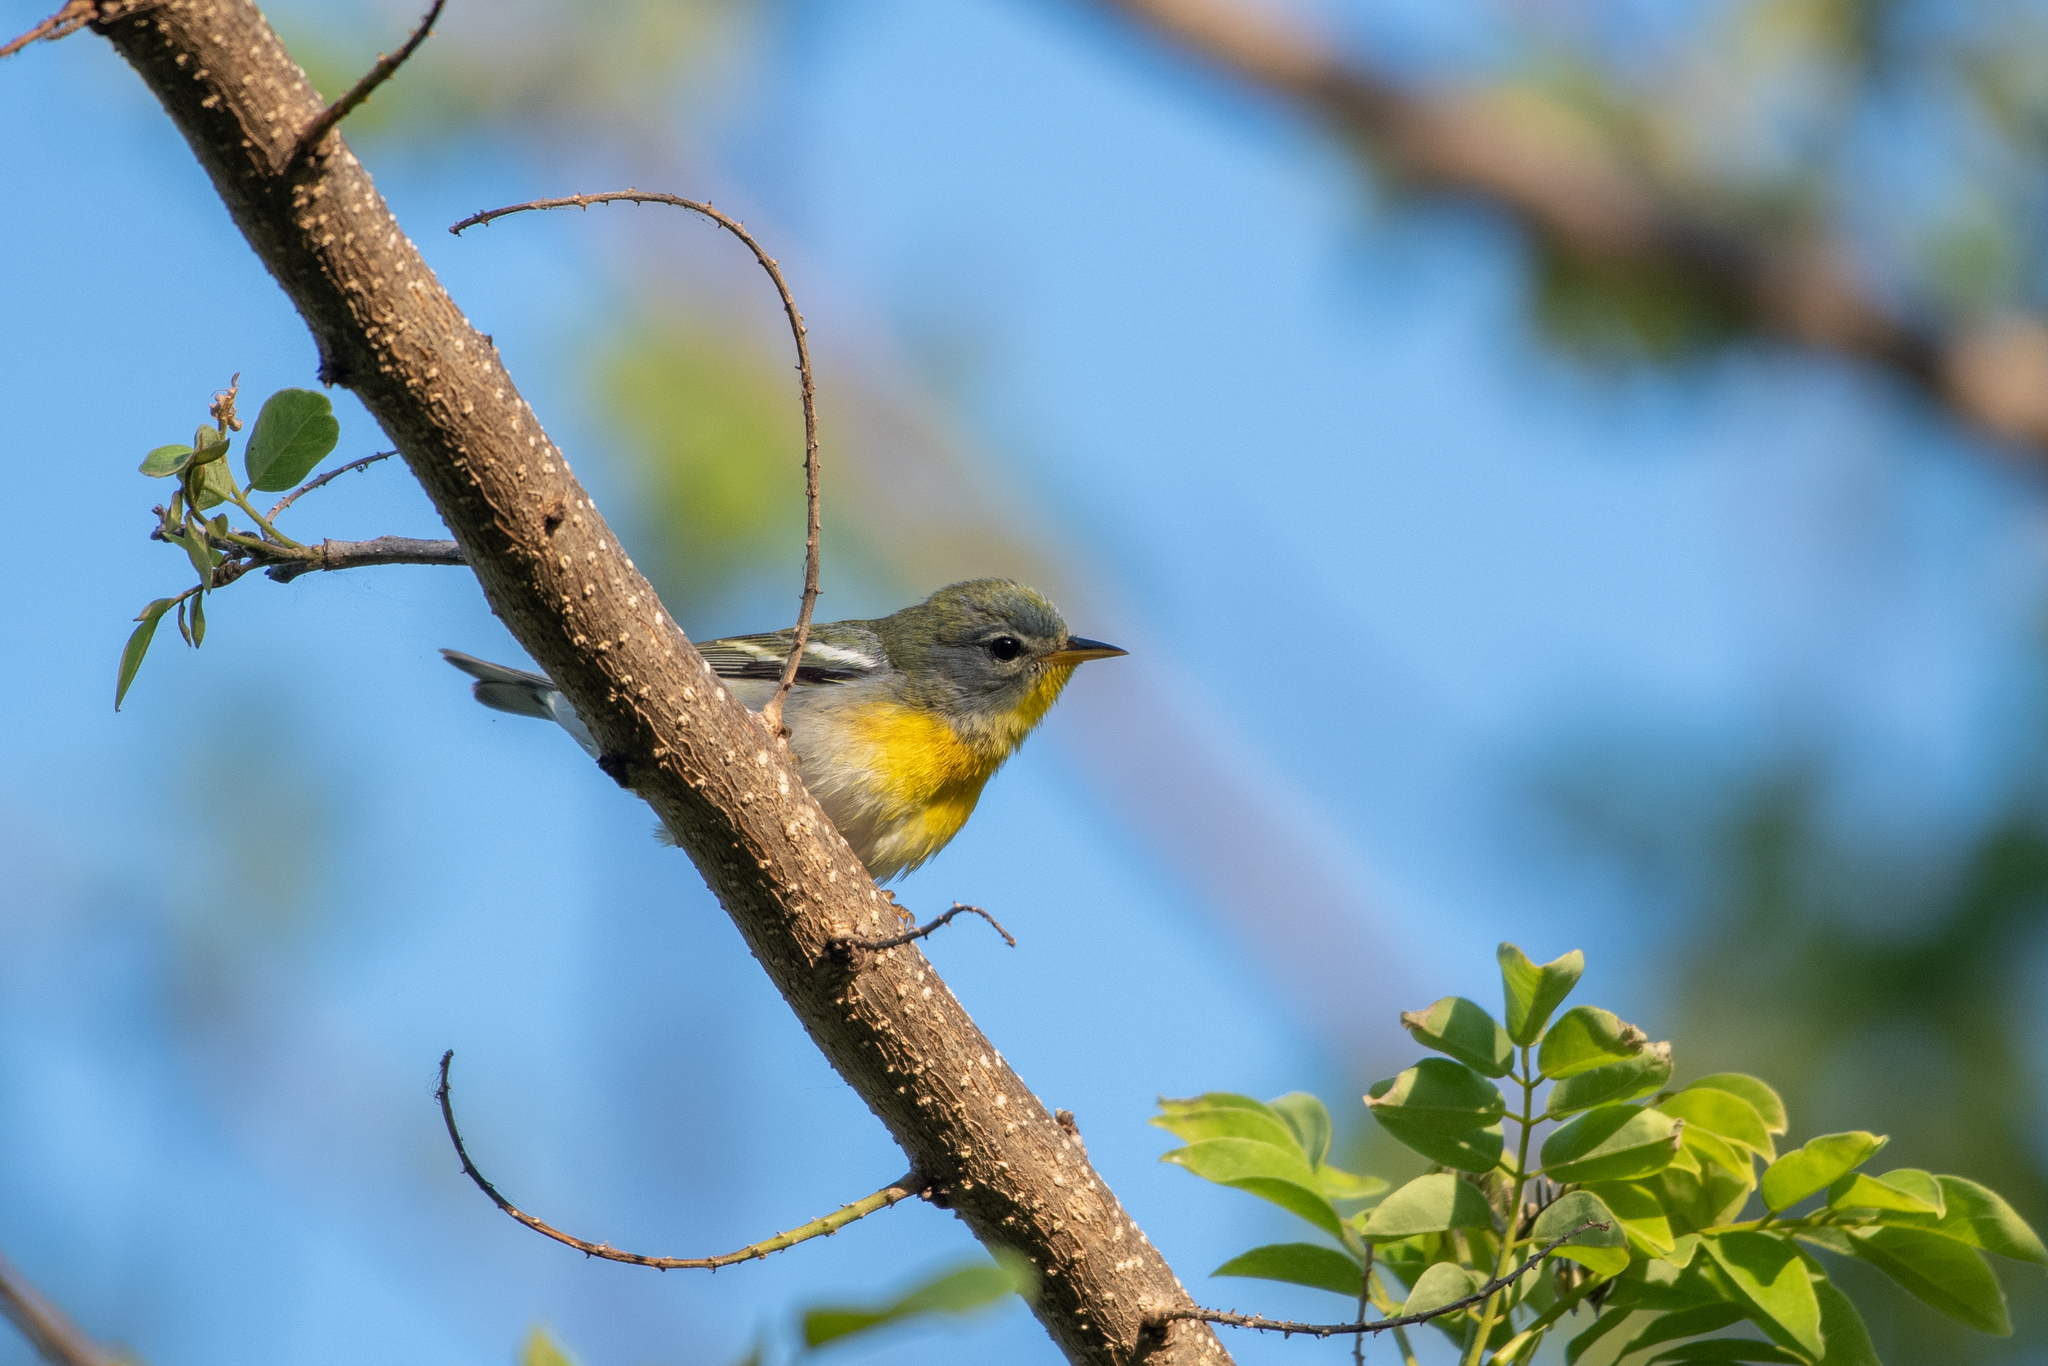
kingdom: Animalia
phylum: Chordata
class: Aves
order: Passeriformes
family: Parulidae
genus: Setophaga
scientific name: Setophaga americana
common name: Northern parula
